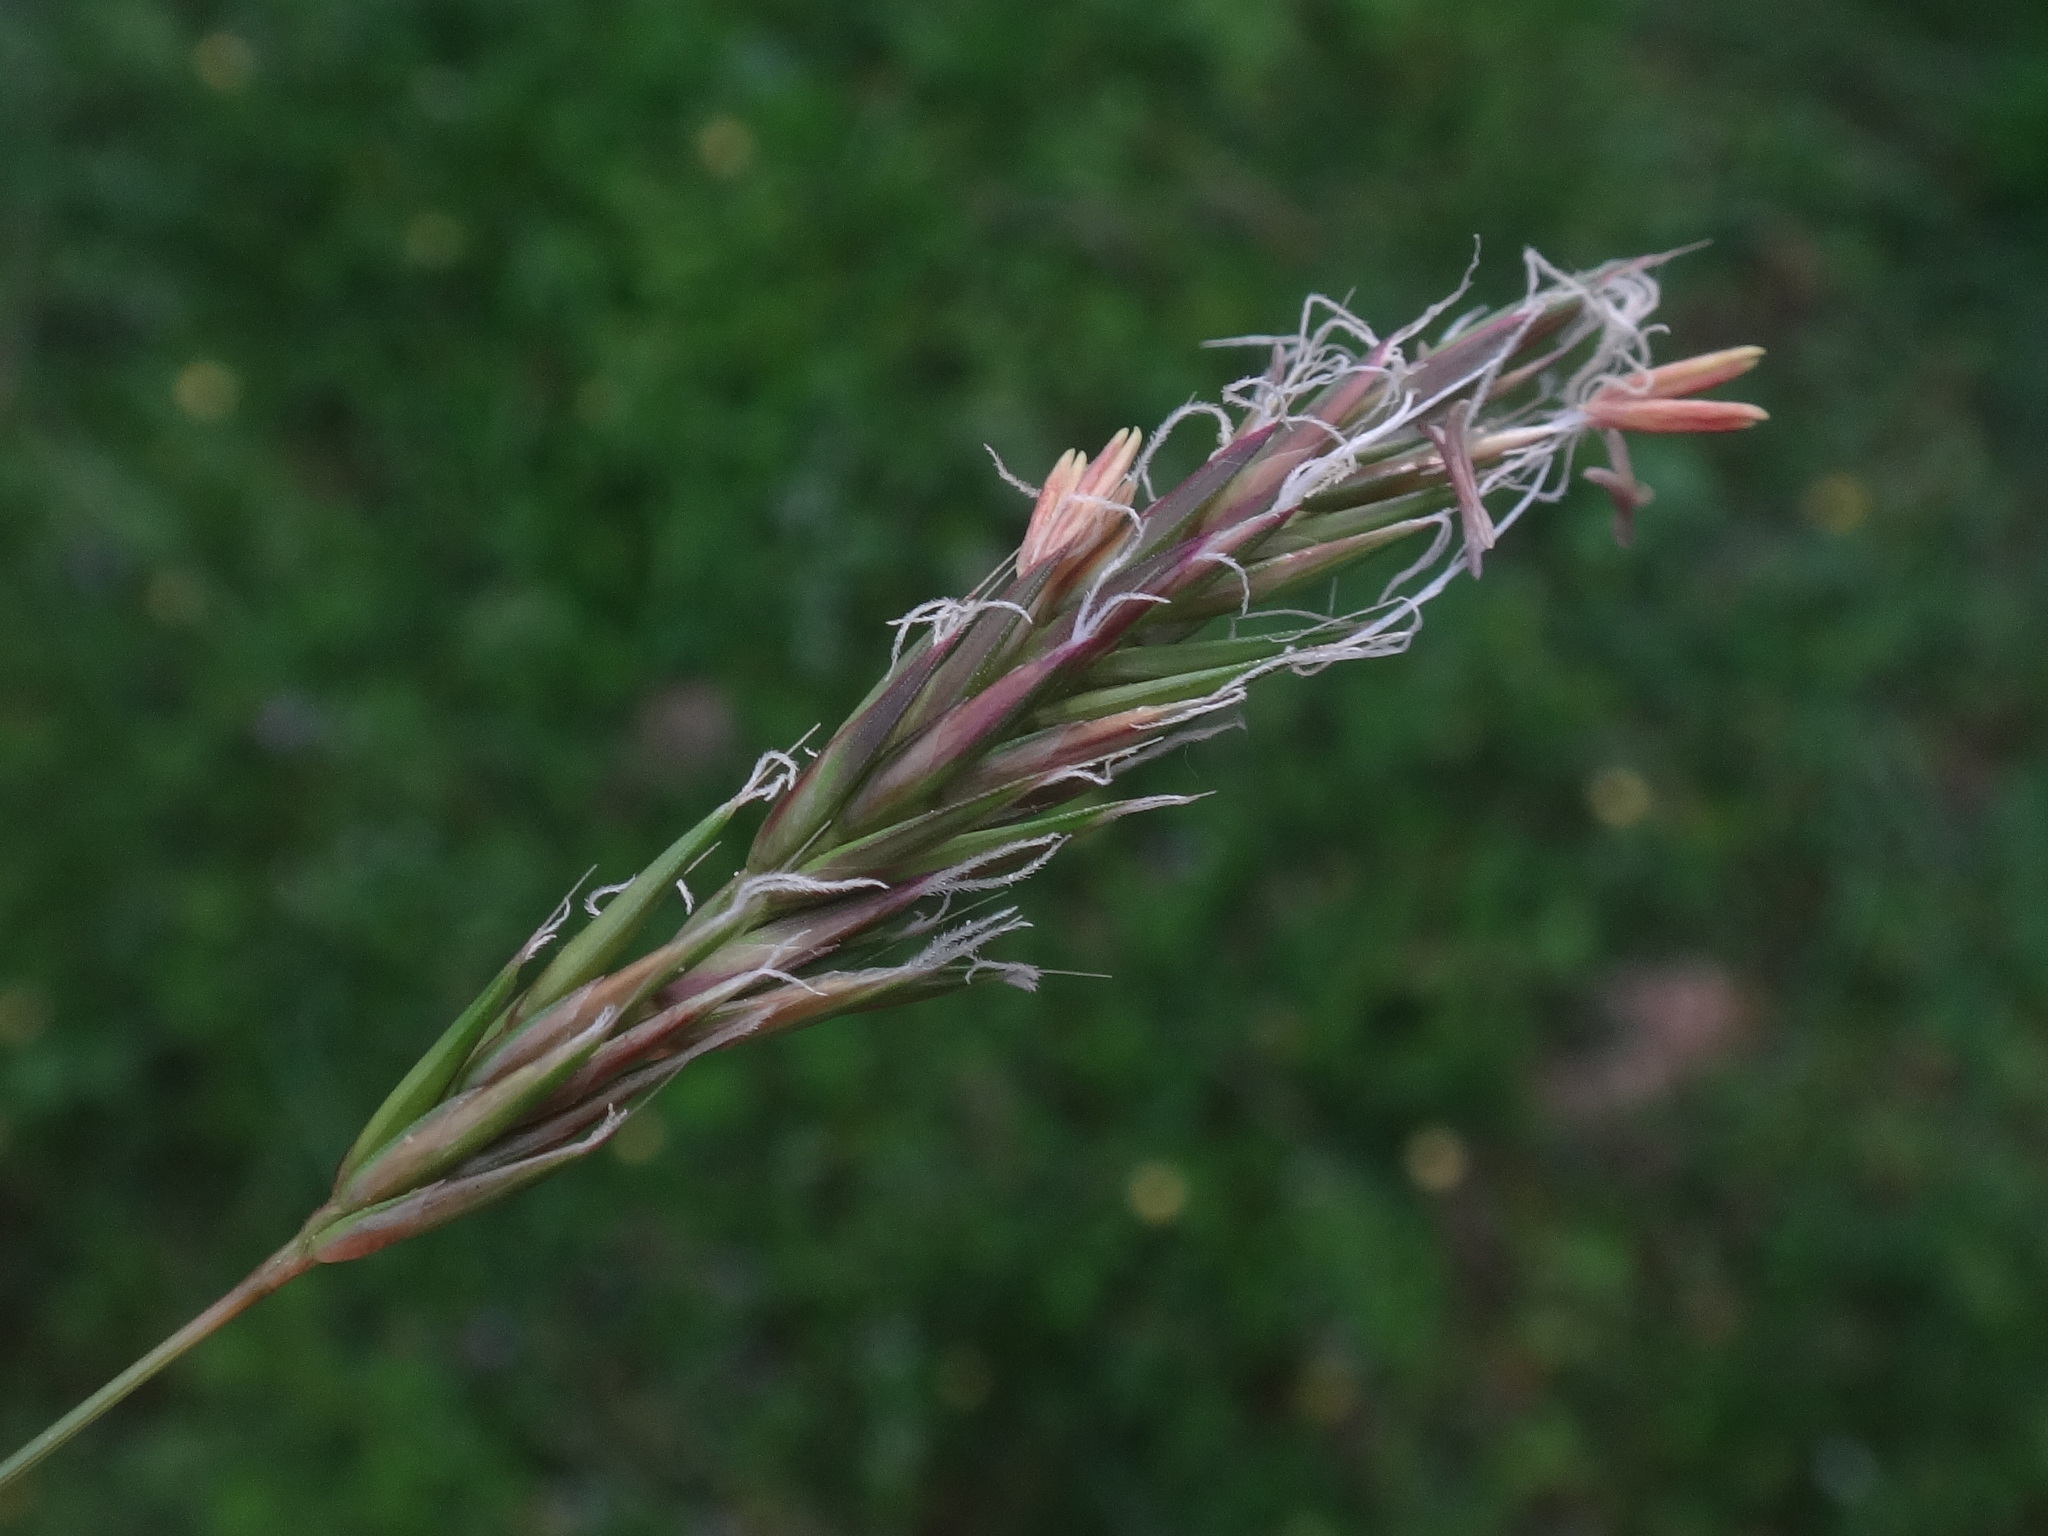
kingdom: Plantae
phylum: Tracheophyta
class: Liliopsida
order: Poales
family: Poaceae
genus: Anthoxanthum
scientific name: Anthoxanthum odoratum
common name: Sweet vernalgrass
